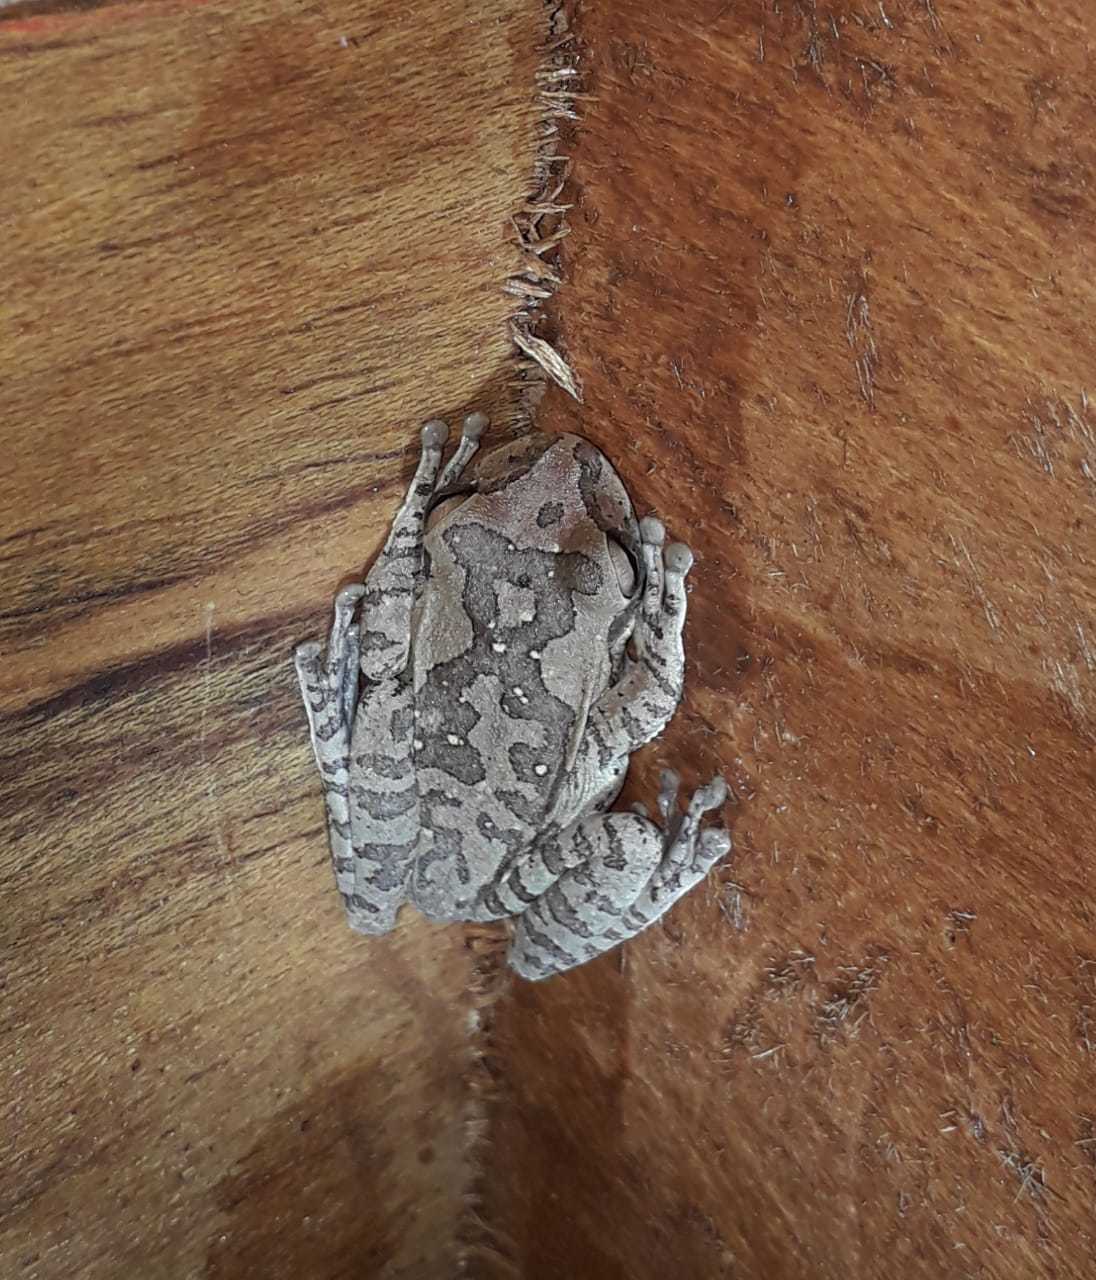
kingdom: Animalia
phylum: Chordata
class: Amphibia
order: Anura
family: Hylidae
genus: Smilisca
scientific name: Smilisca baudinii
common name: Mexican smilisca
